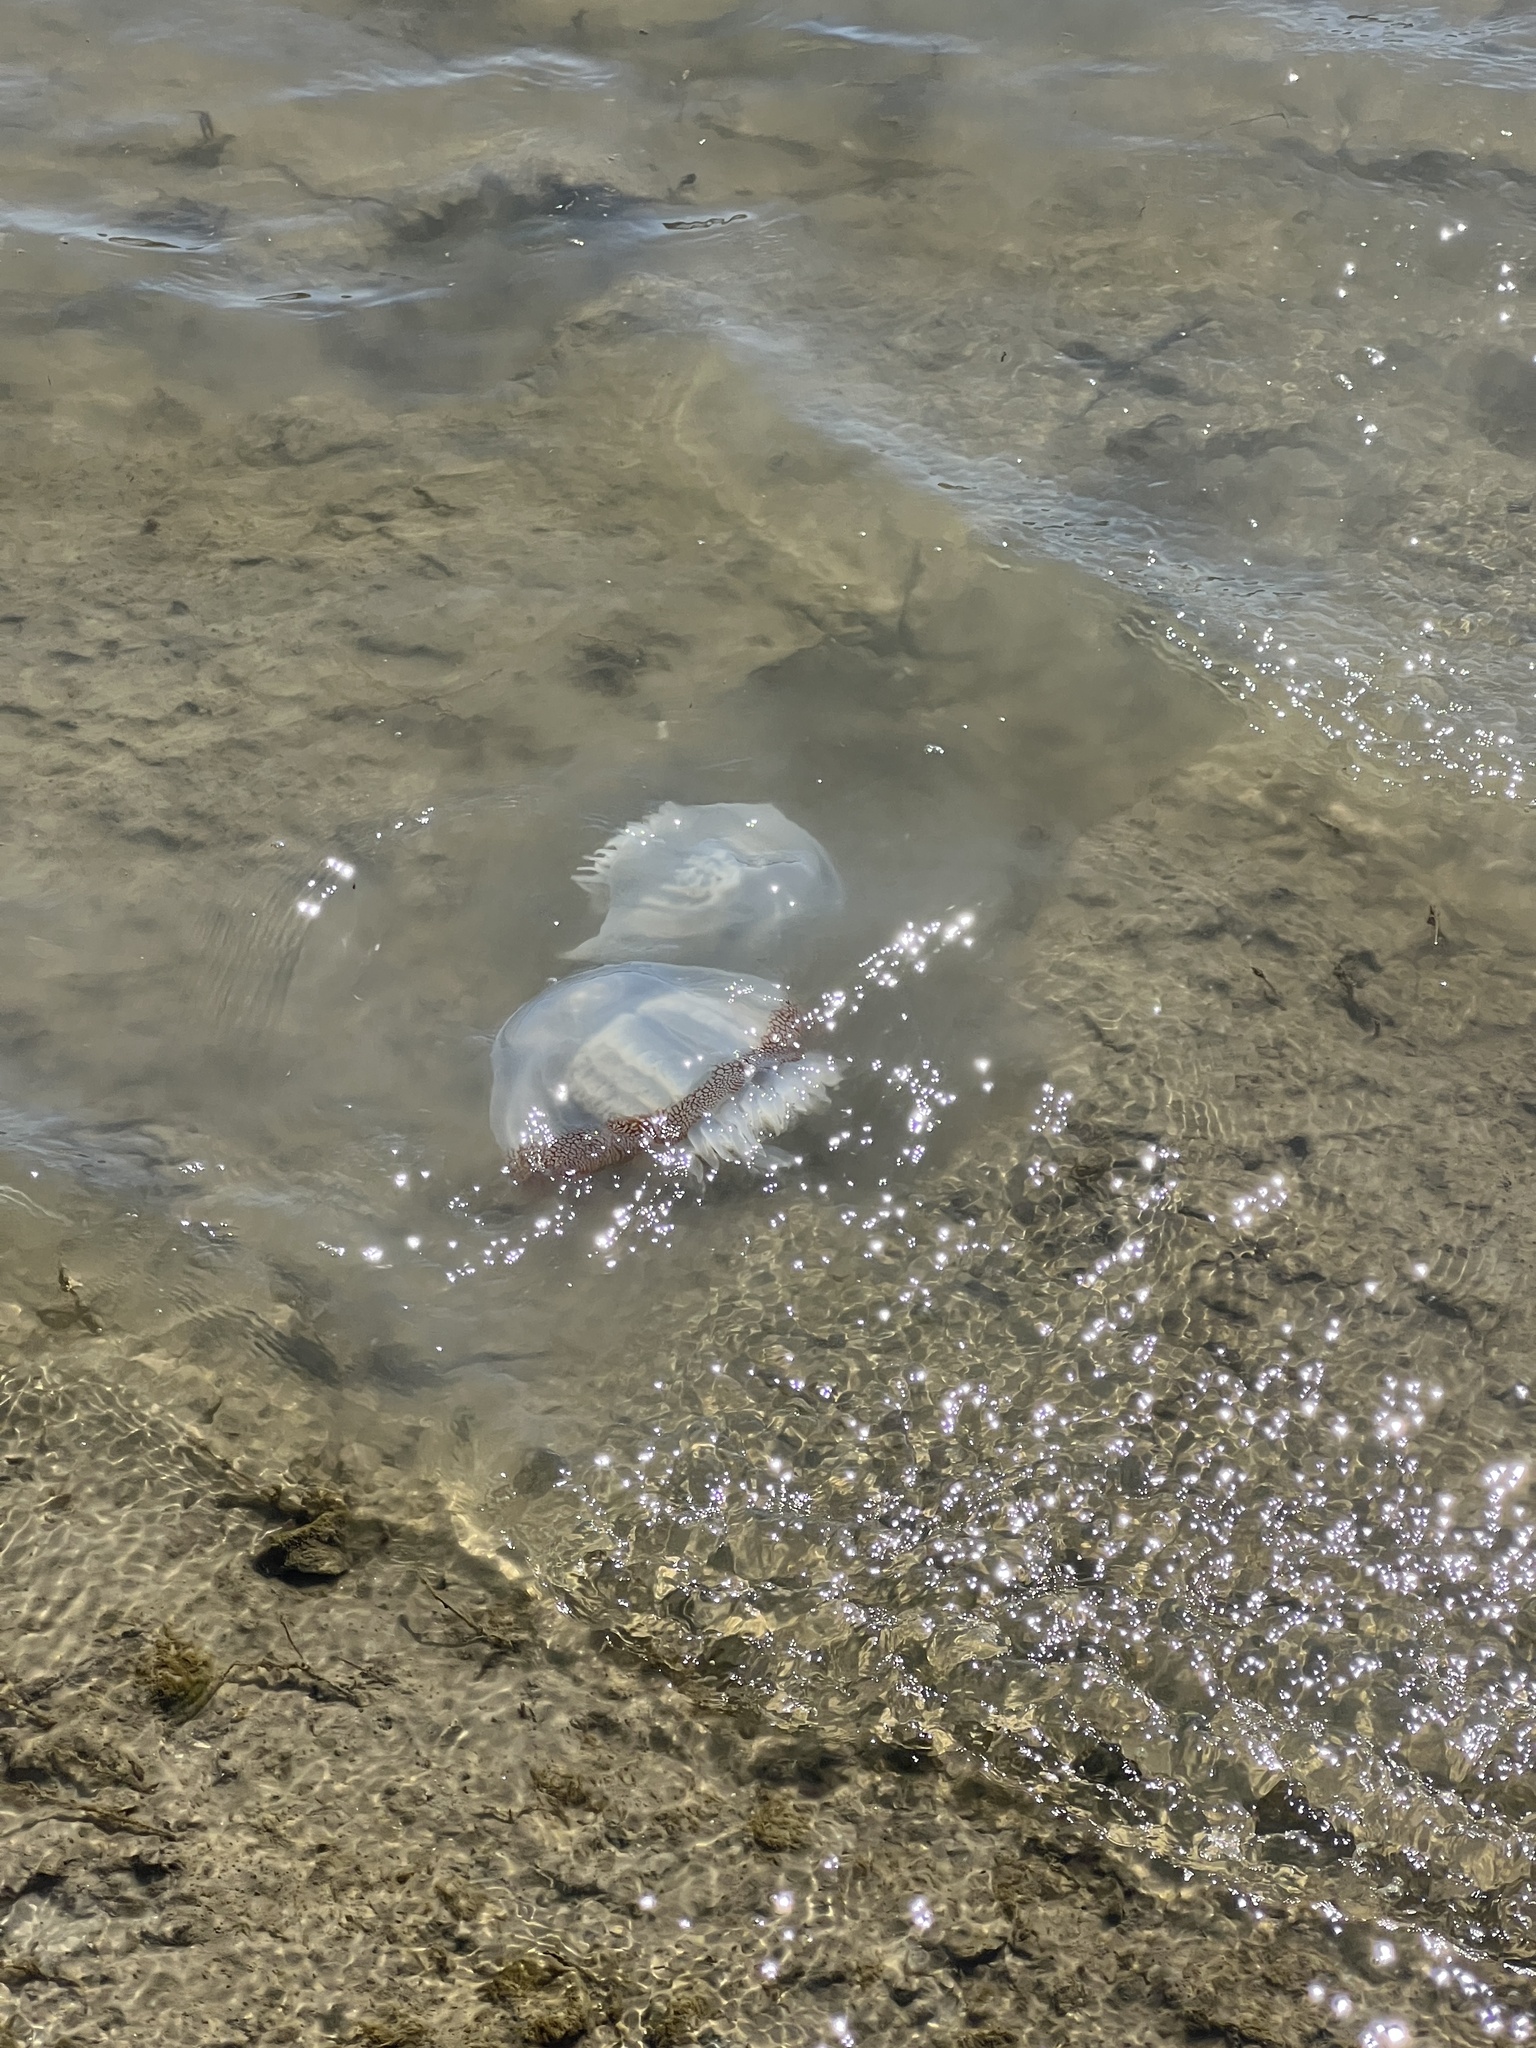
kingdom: Animalia
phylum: Cnidaria
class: Scyphozoa
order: Rhizostomeae
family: Stomolophidae
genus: Stomolophus
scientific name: Stomolophus meleagris
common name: Cabbagehead
